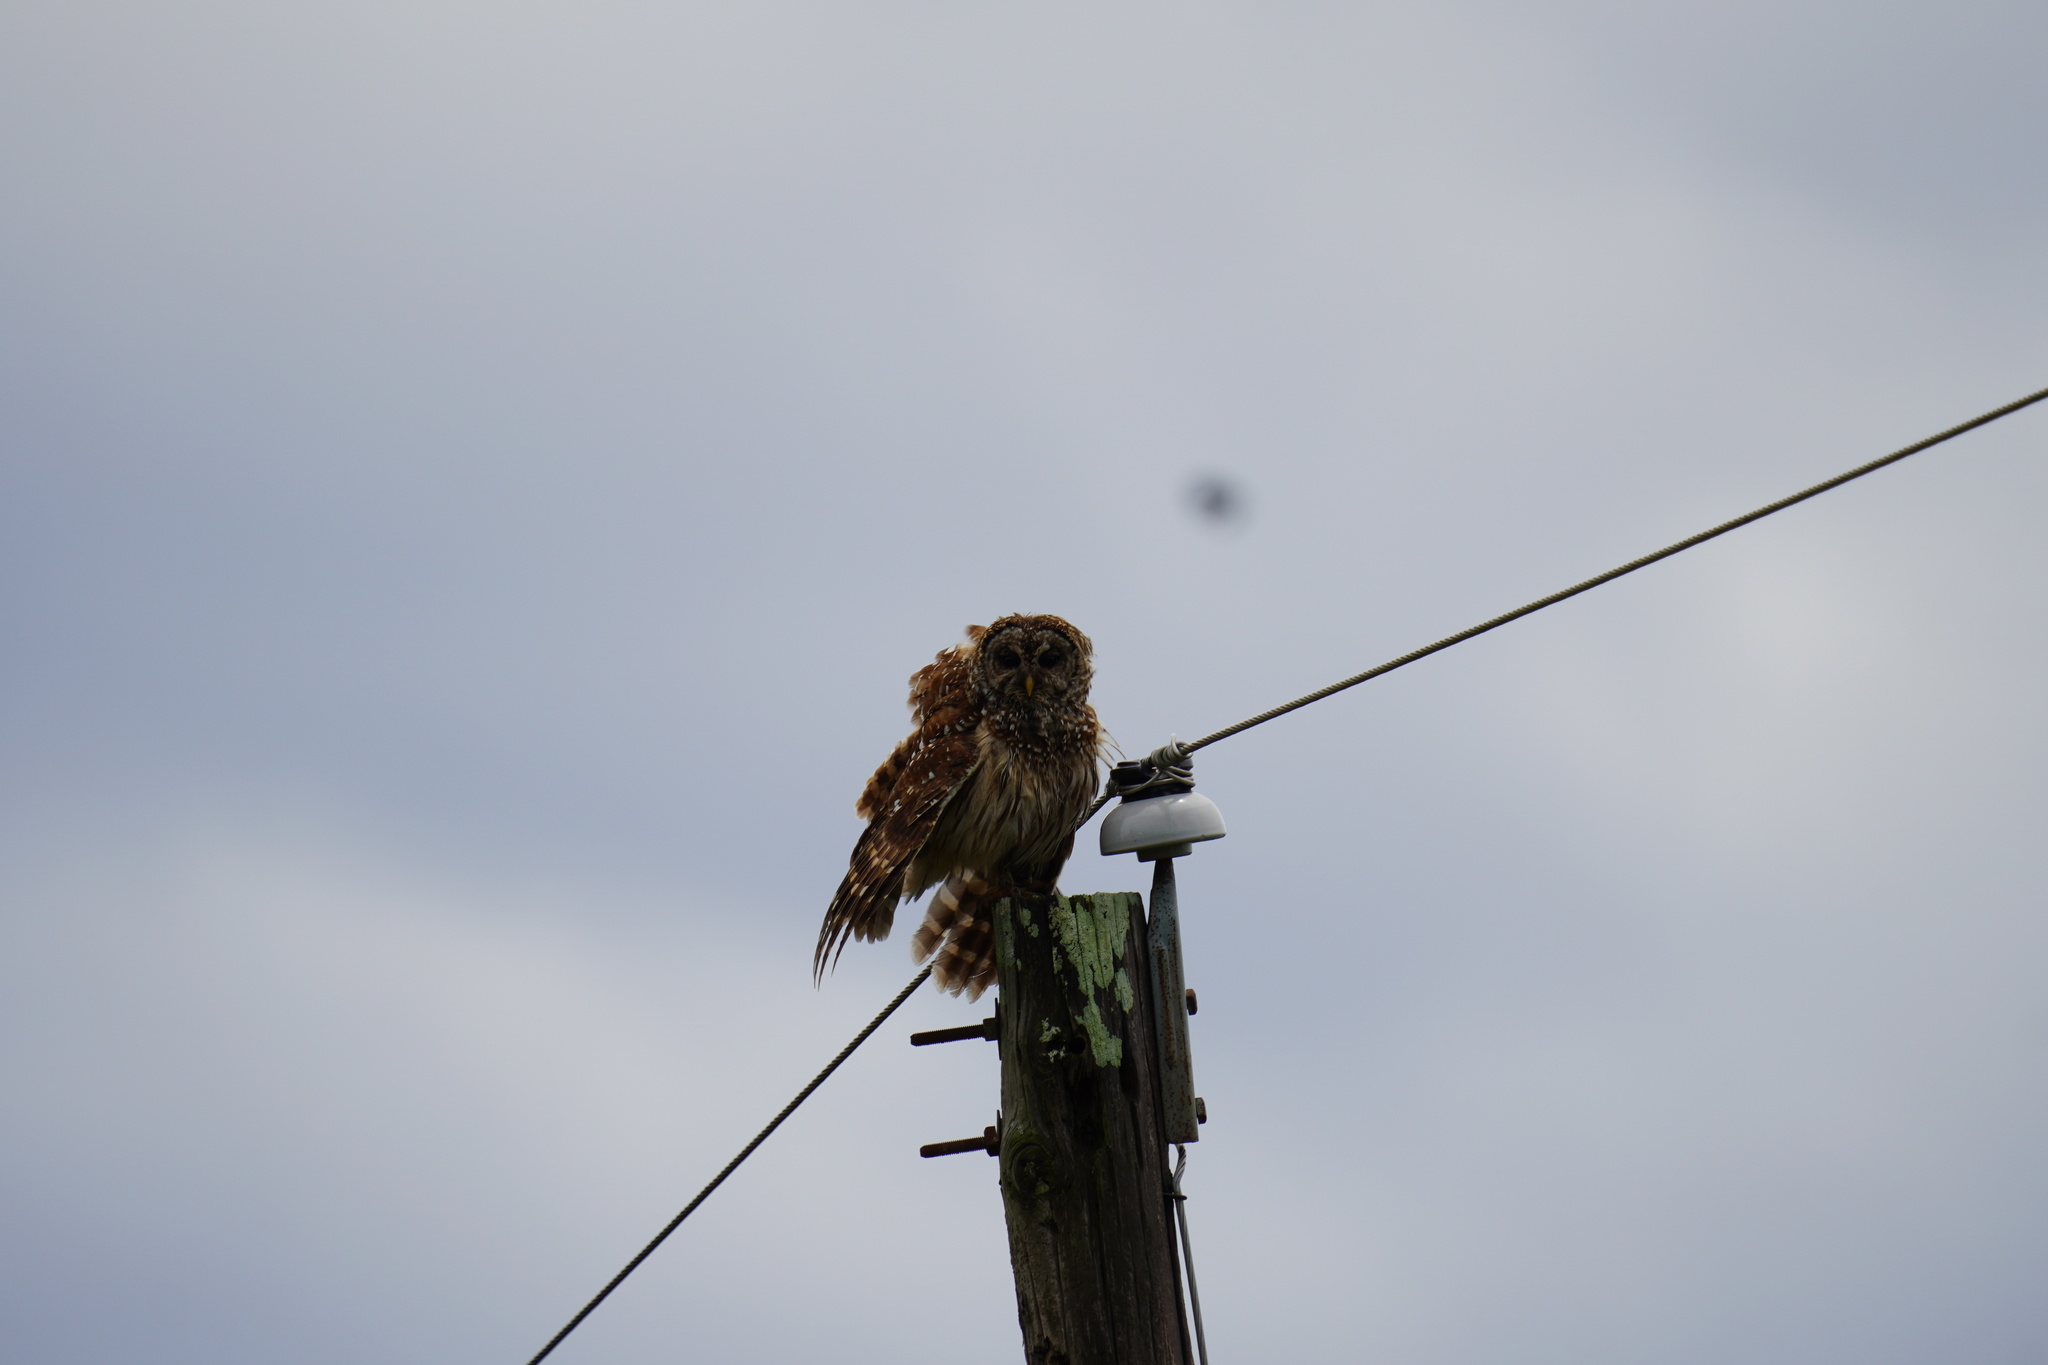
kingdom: Animalia
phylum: Chordata
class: Aves
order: Strigiformes
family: Strigidae
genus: Strix
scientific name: Strix varia
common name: Barred owl
